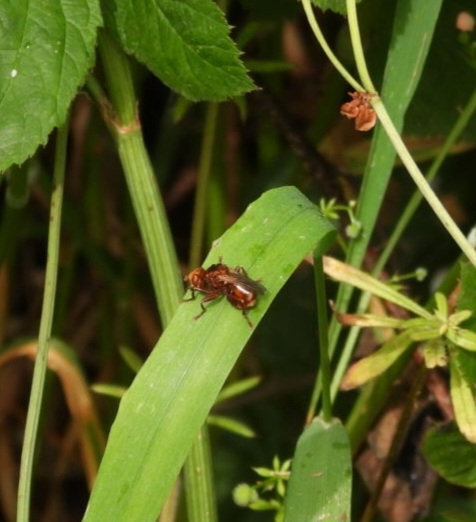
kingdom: Animalia
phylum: Arthropoda
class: Insecta
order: Diptera
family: Conopidae
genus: Sicus
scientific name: Sicus ferrugineus
